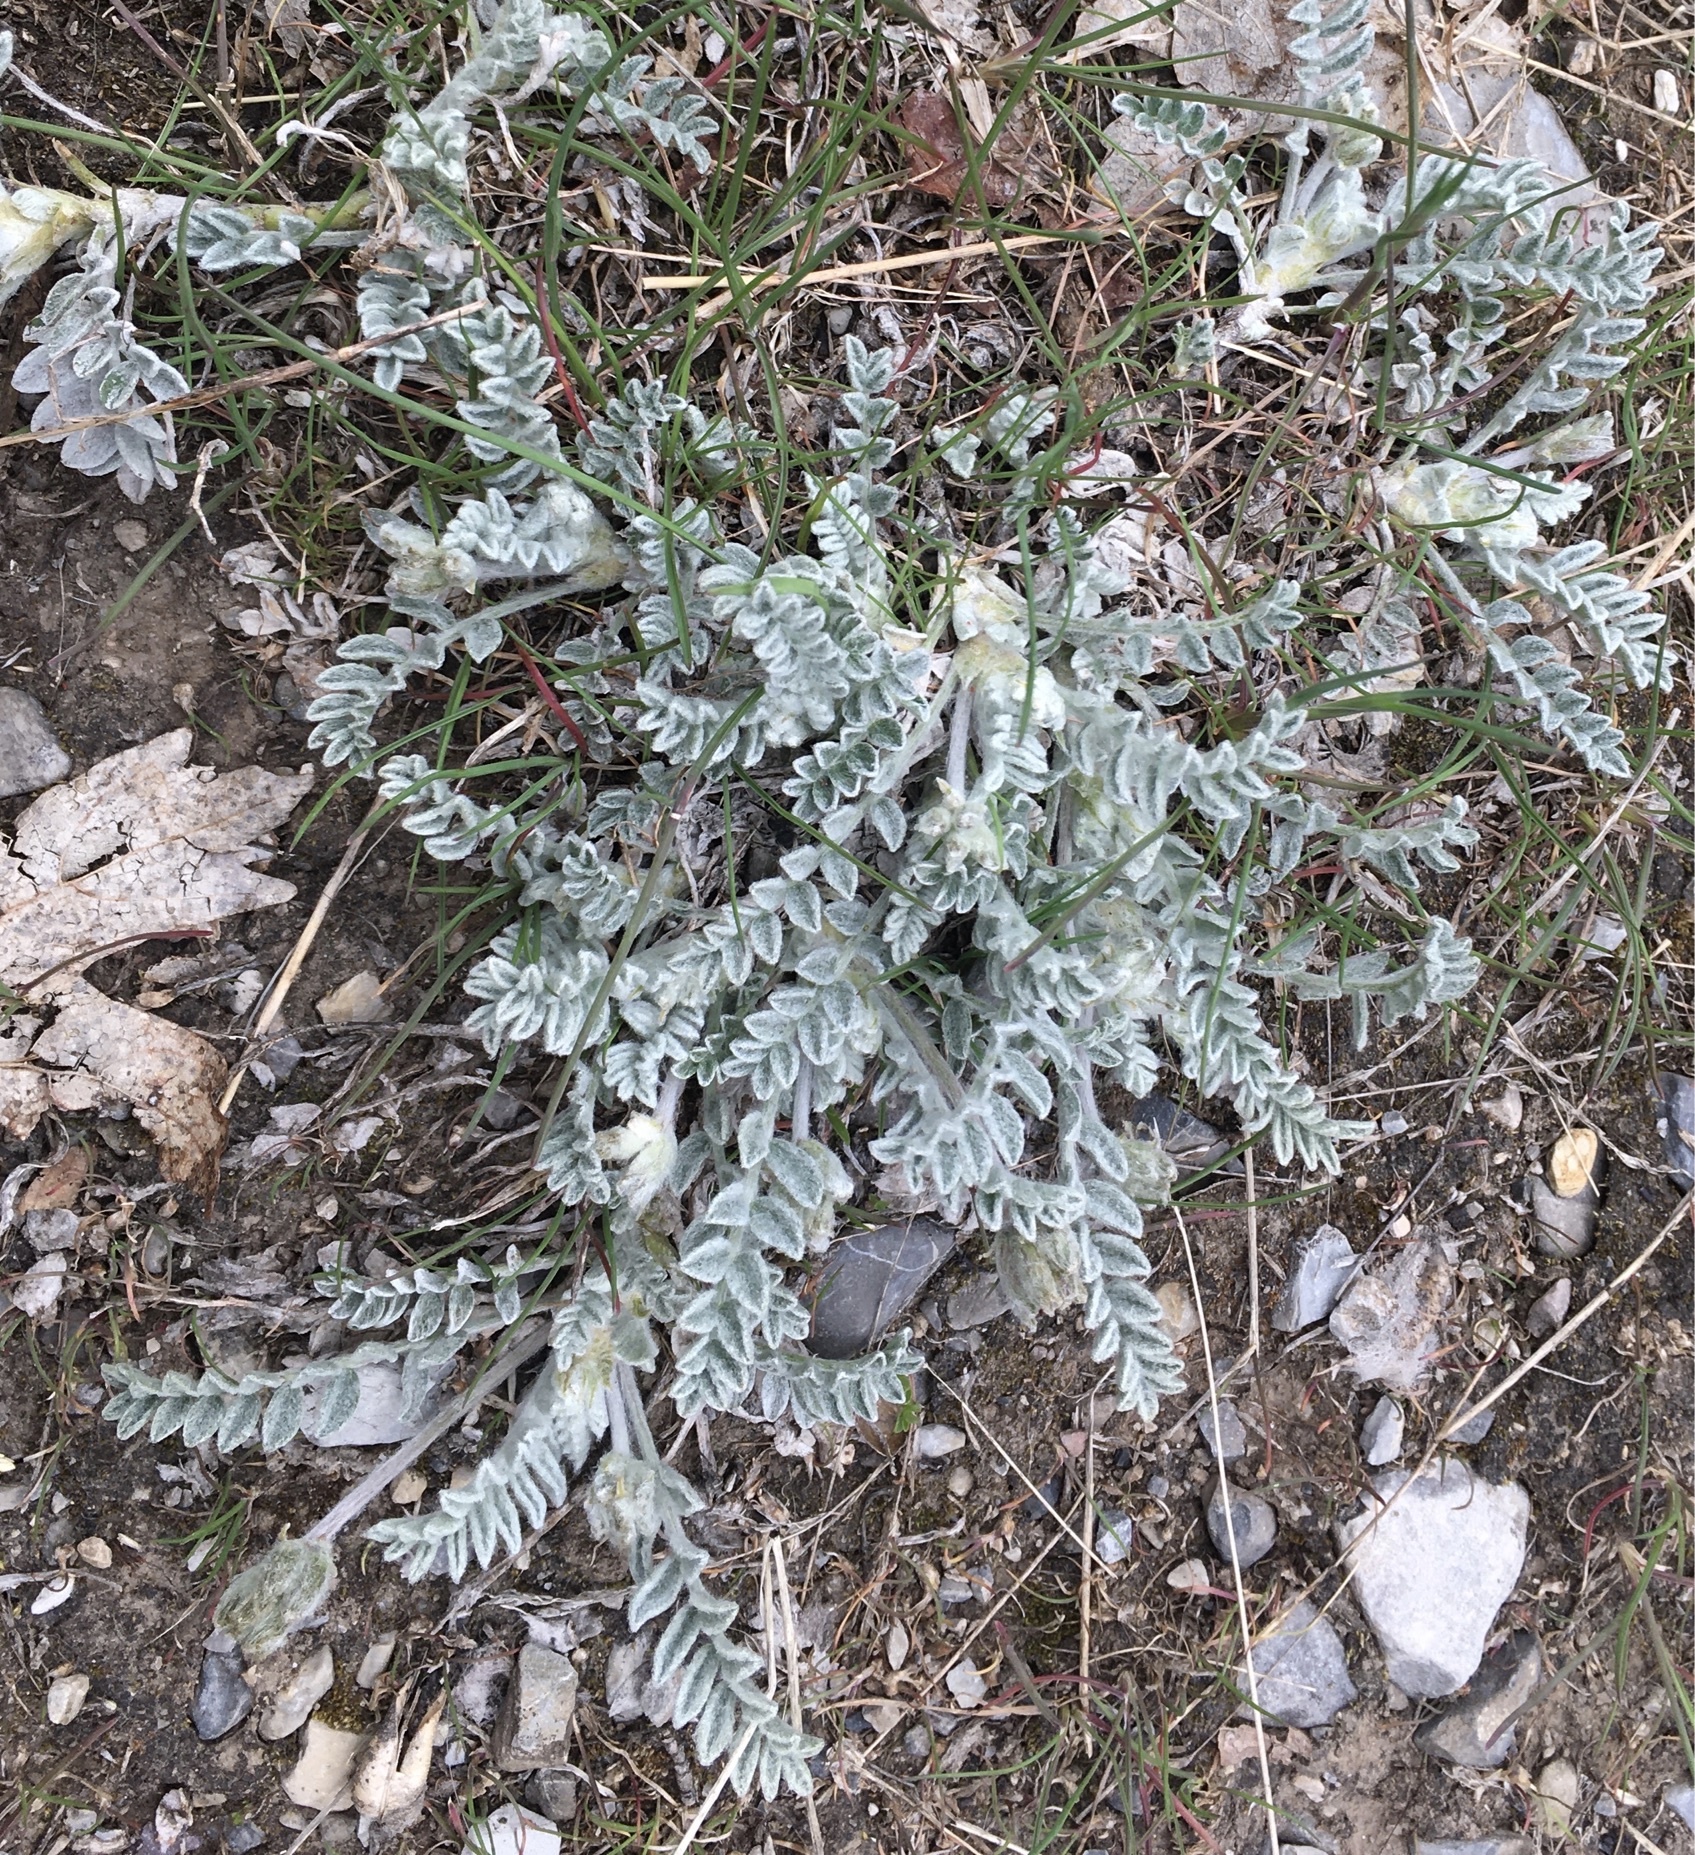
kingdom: Plantae
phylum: Tracheophyta
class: Magnoliopsida
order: Fabales
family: Fabaceae
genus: Astragalus
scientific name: Astragalus utahensis
